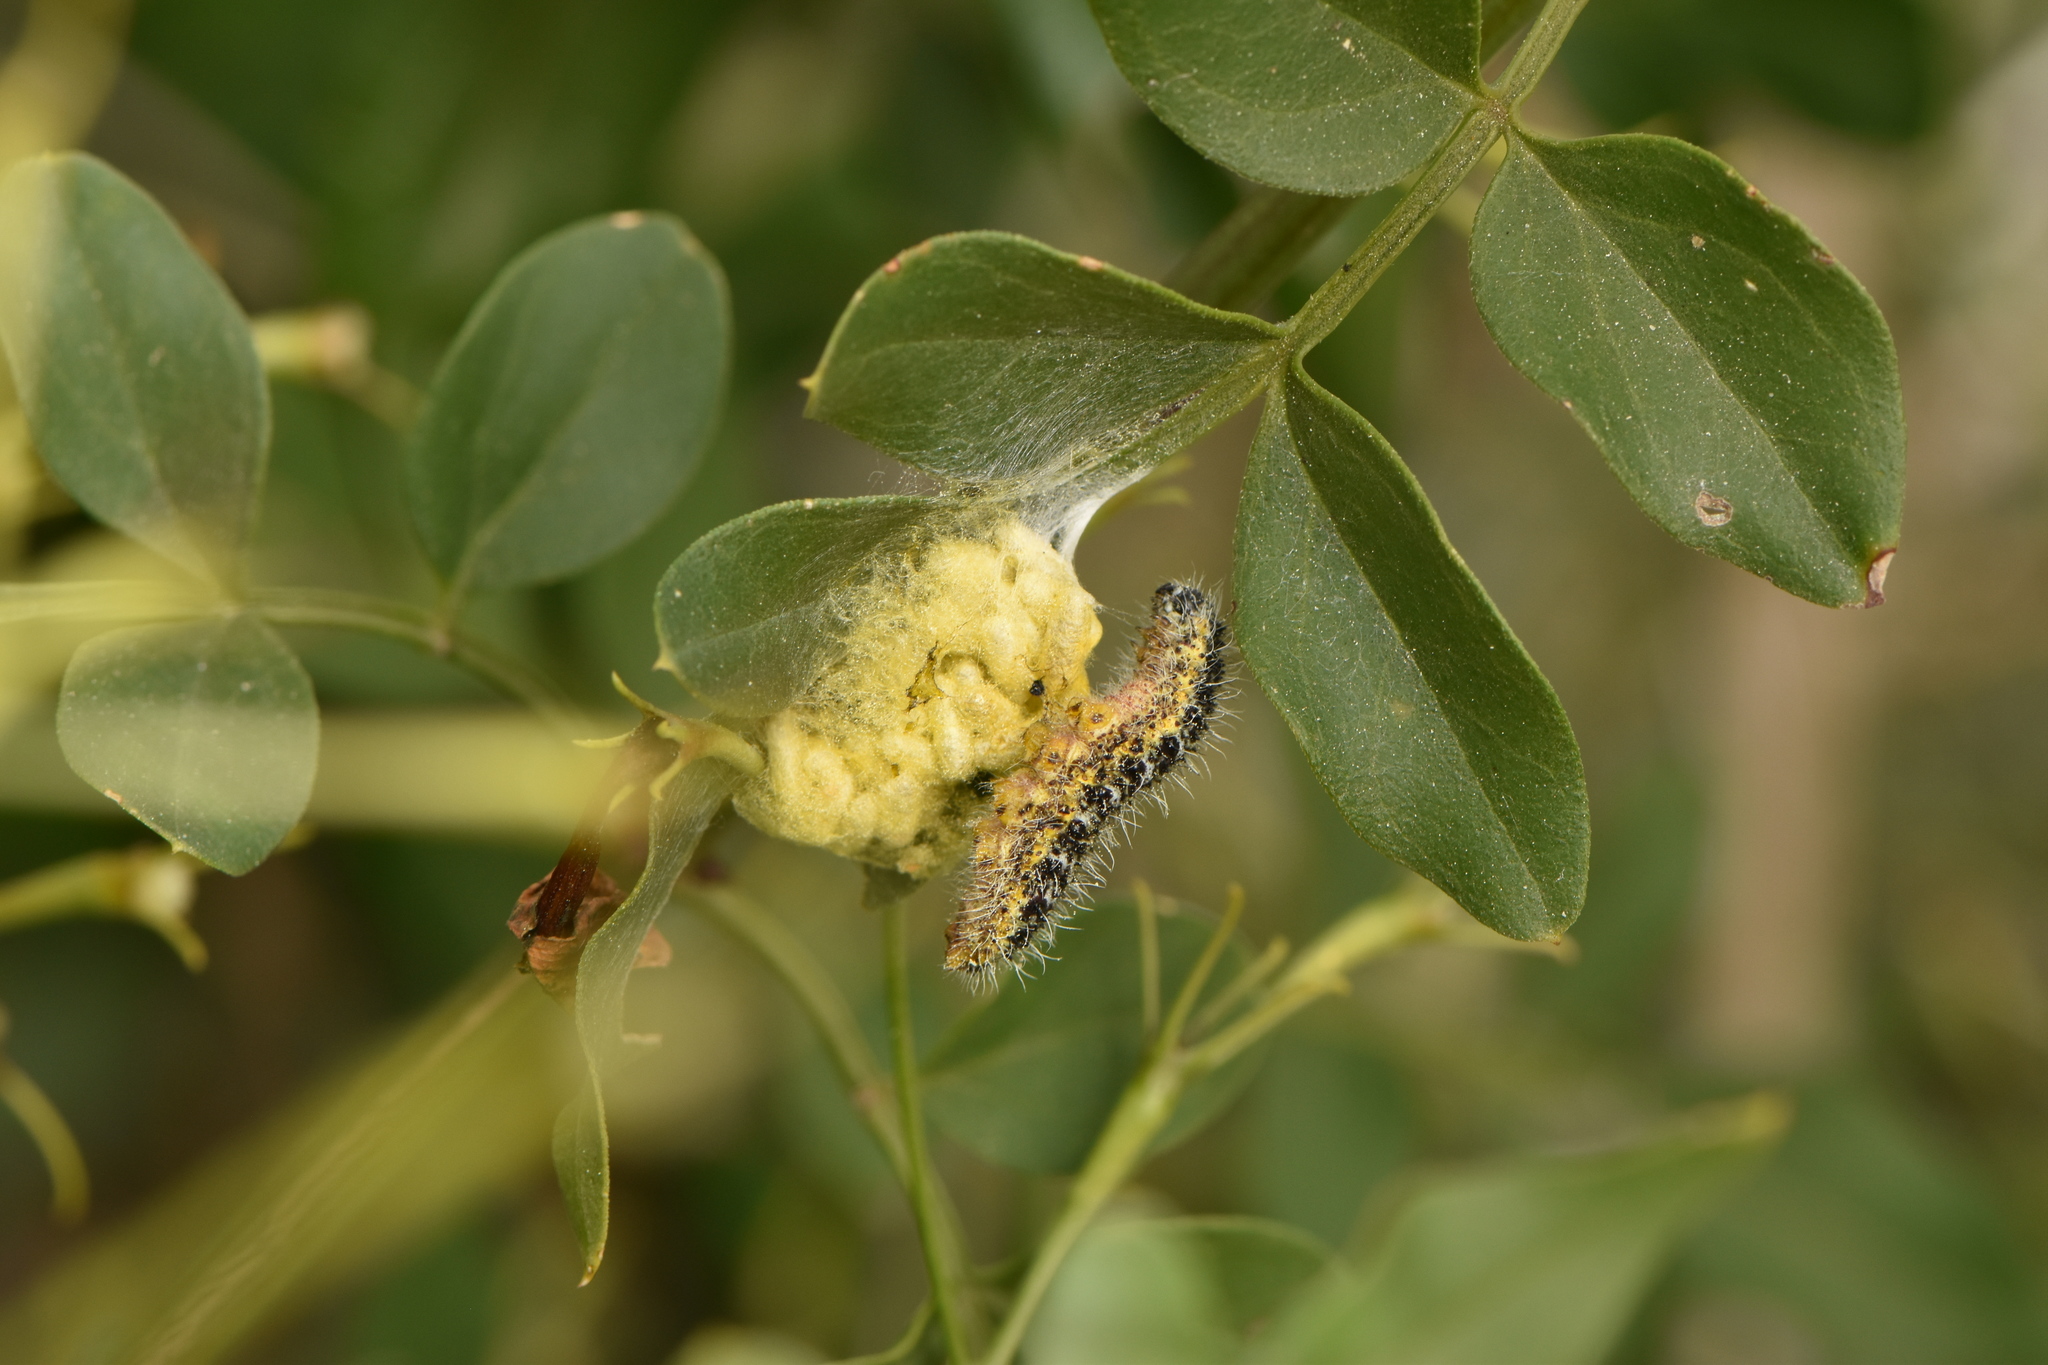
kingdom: Animalia
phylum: Arthropoda
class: Insecta
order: Hymenoptera
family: Braconidae
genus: Cotesia
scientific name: Cotesia glomerata
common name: Parasitoid wasp
